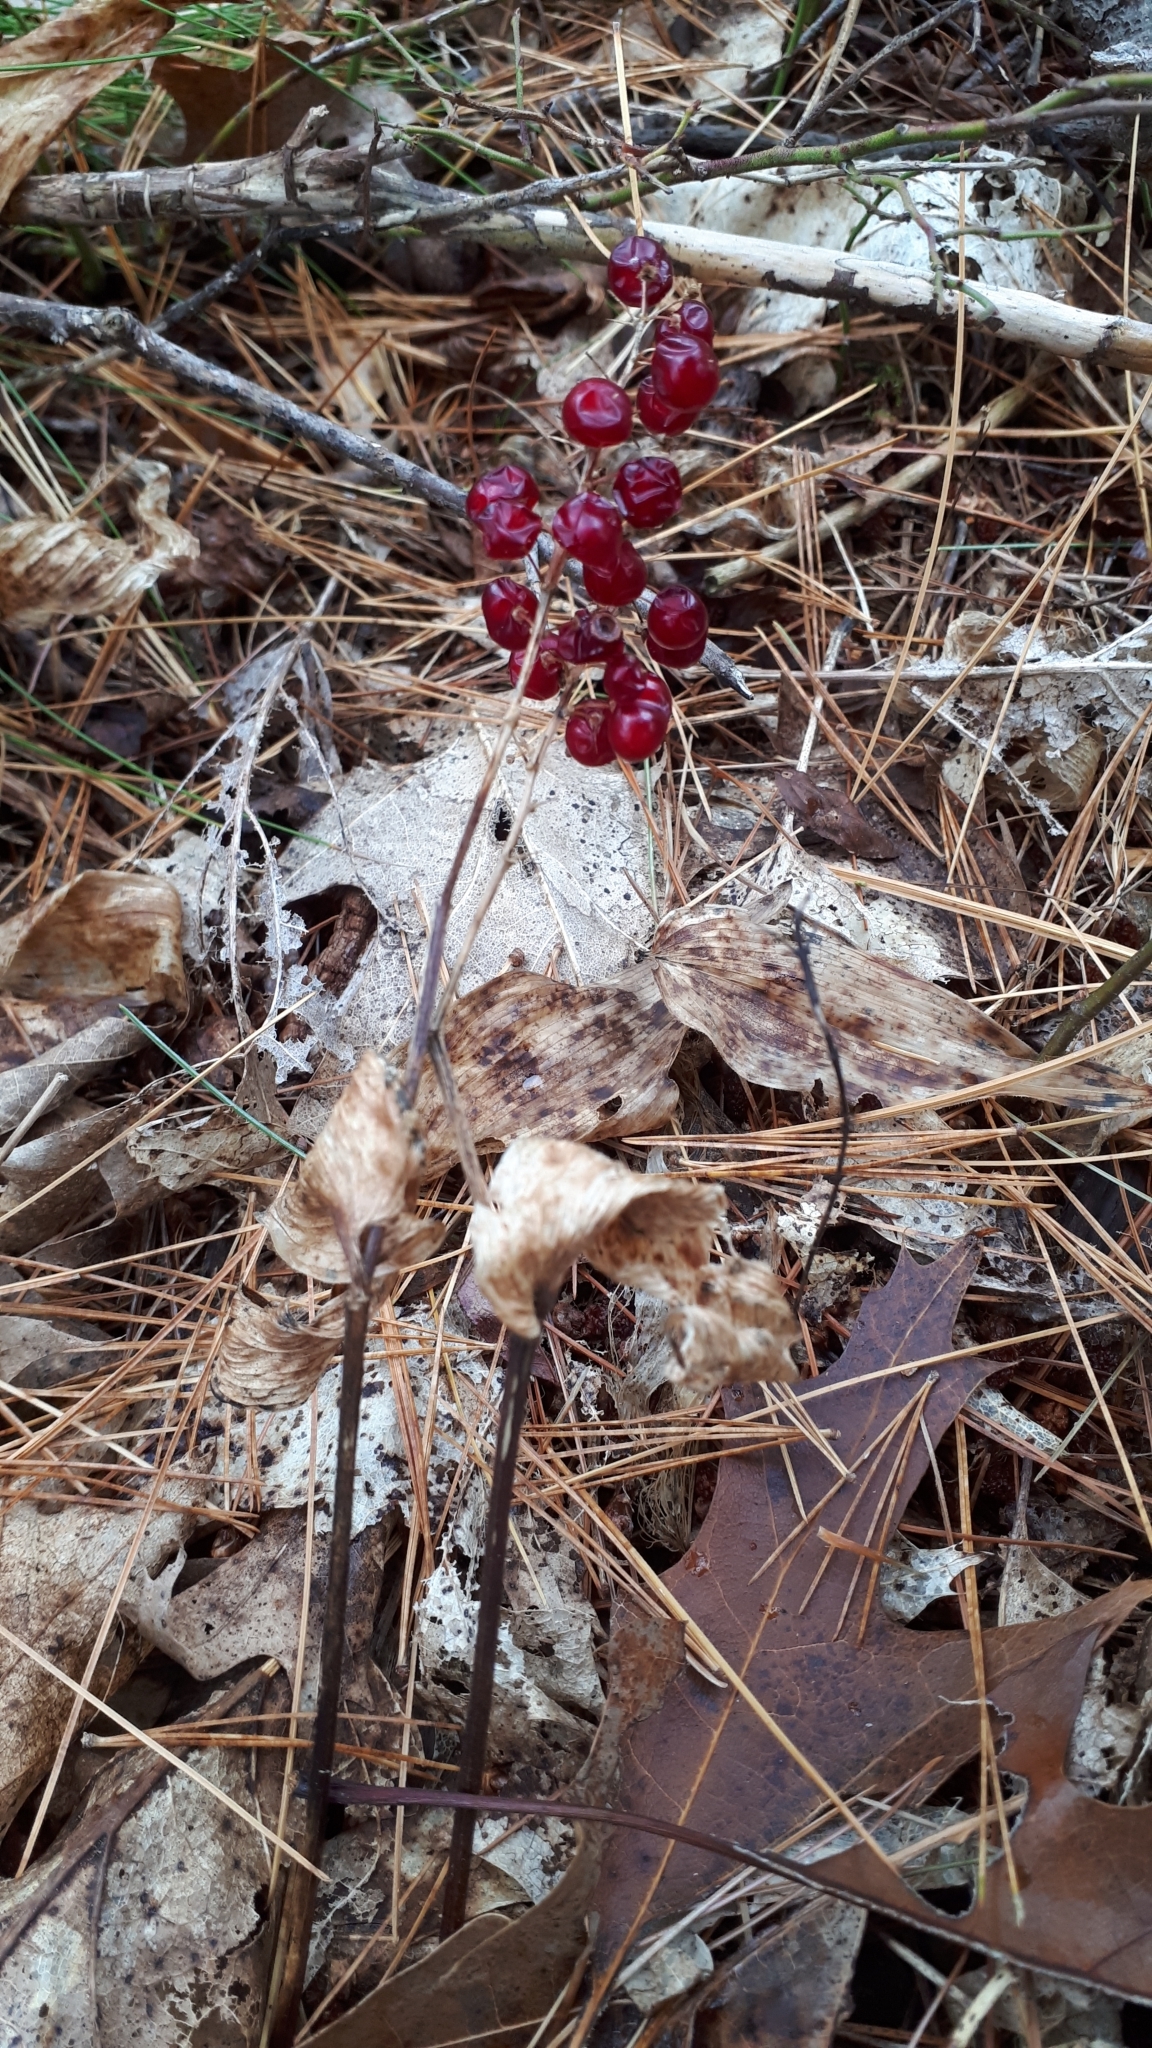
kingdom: Plantae
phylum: Tracheophyta
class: Liliopsida
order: Asparagales
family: Asparagaceae
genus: Maianthemum
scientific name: Maianthemum canadense
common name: False lily-of-the-valley
